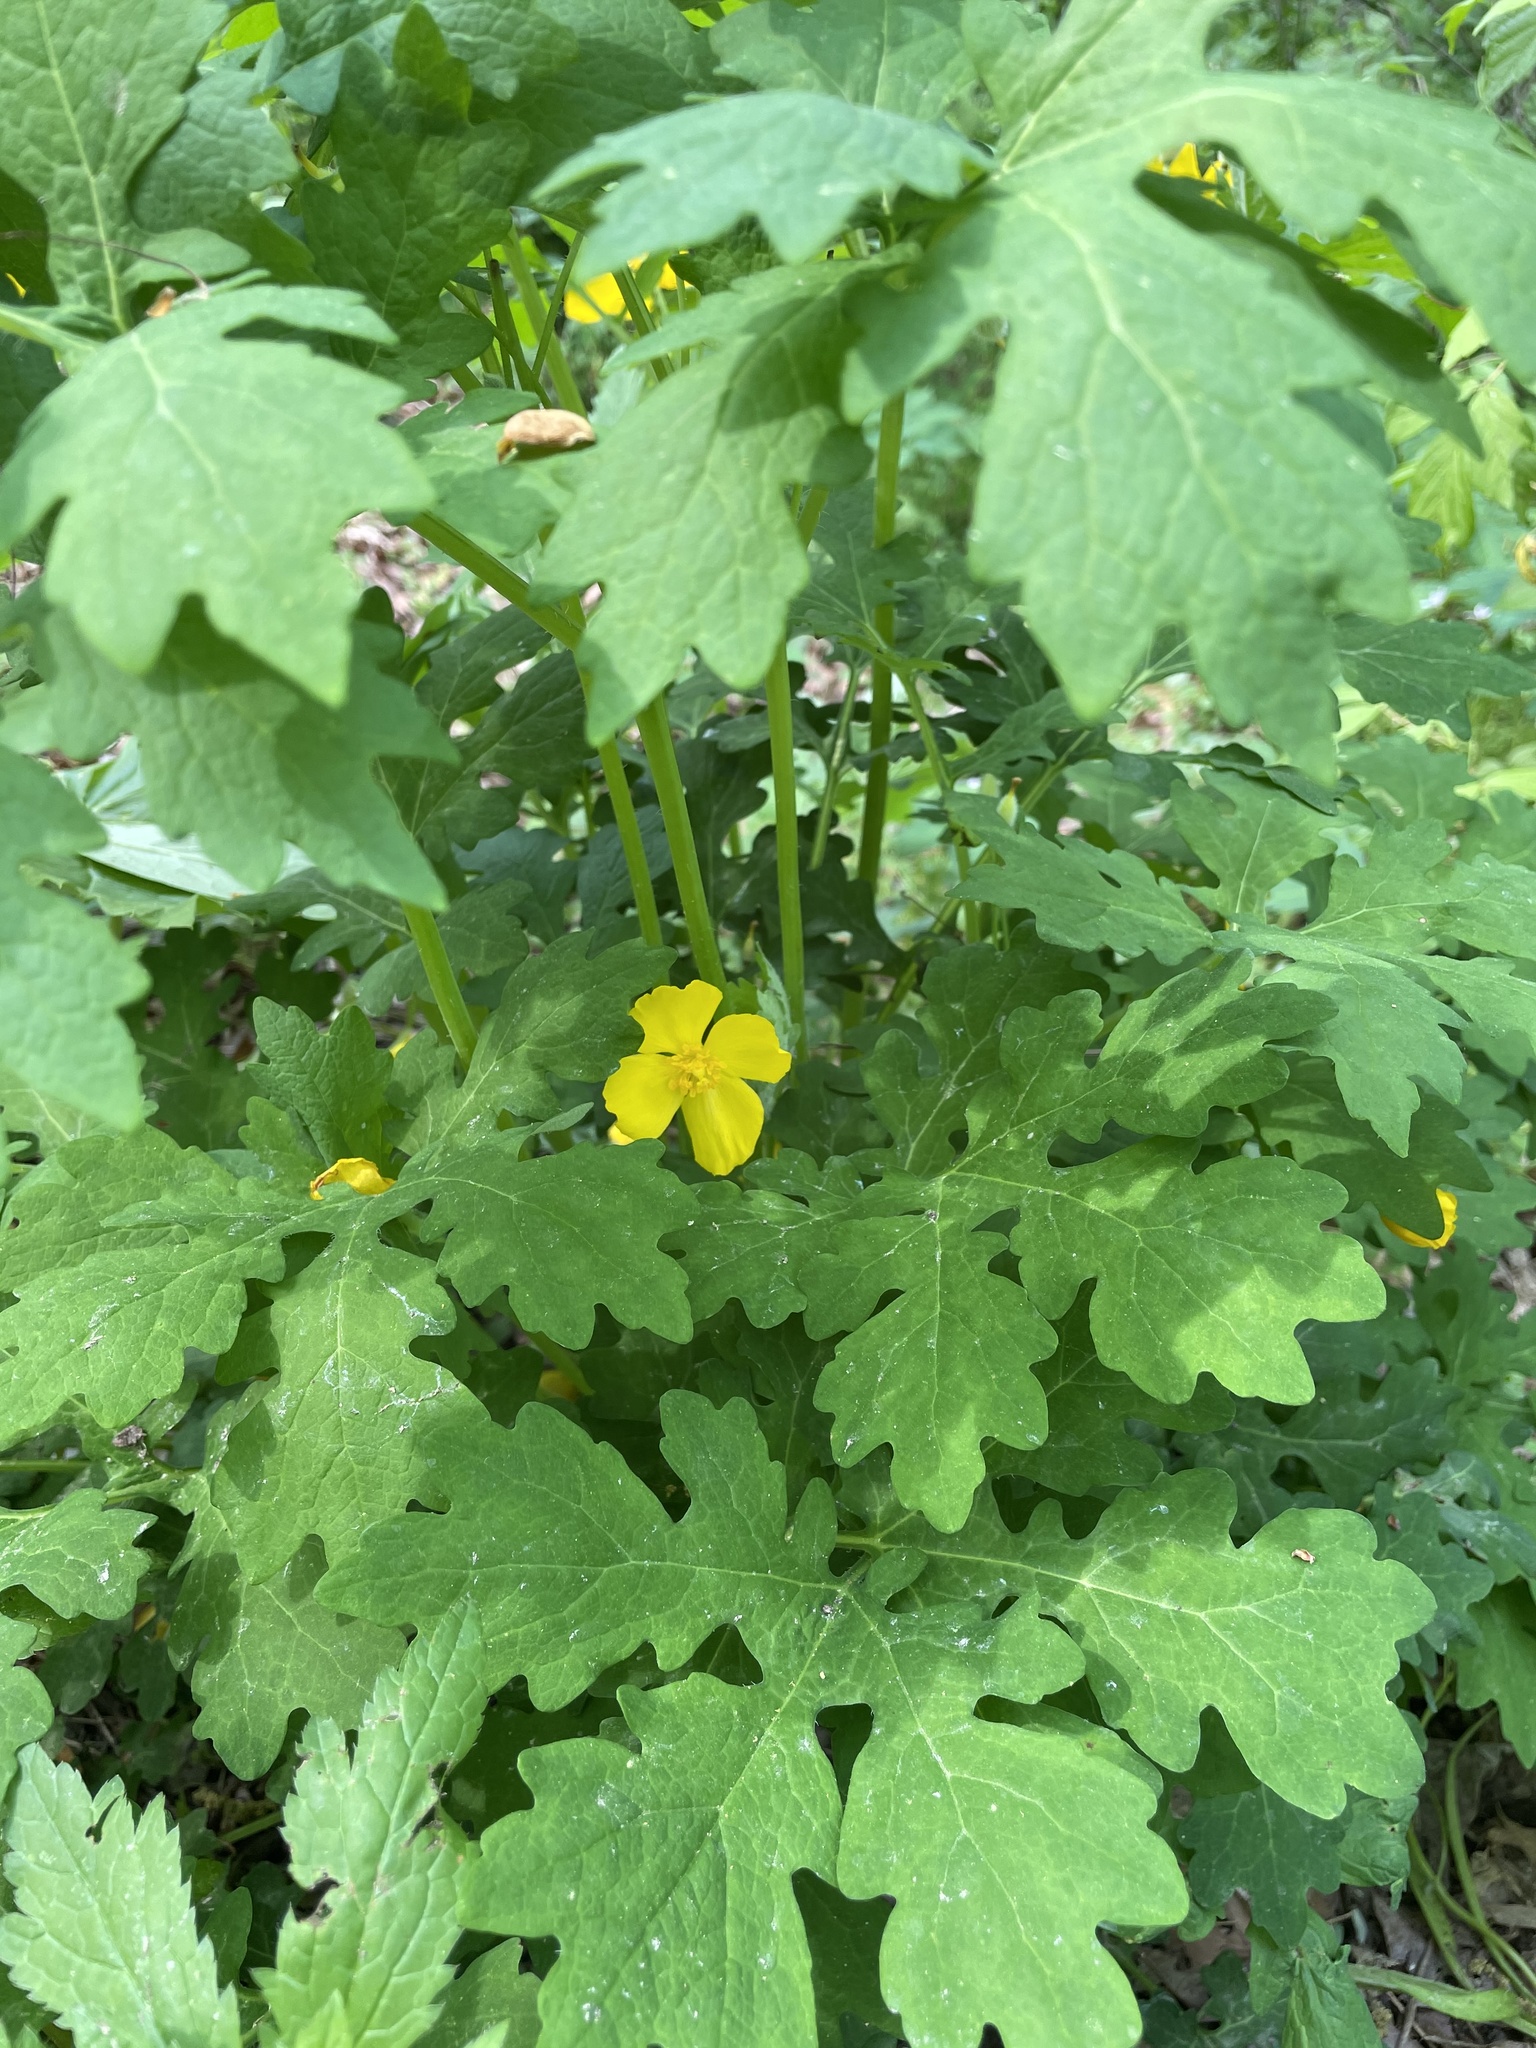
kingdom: Plantae
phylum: Tracheophyta
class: Magnoliopsida
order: Ranunculales
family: Papaveraceae
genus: Stylophorum
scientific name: Stylophorum diphyllum
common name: Celandine poppy
